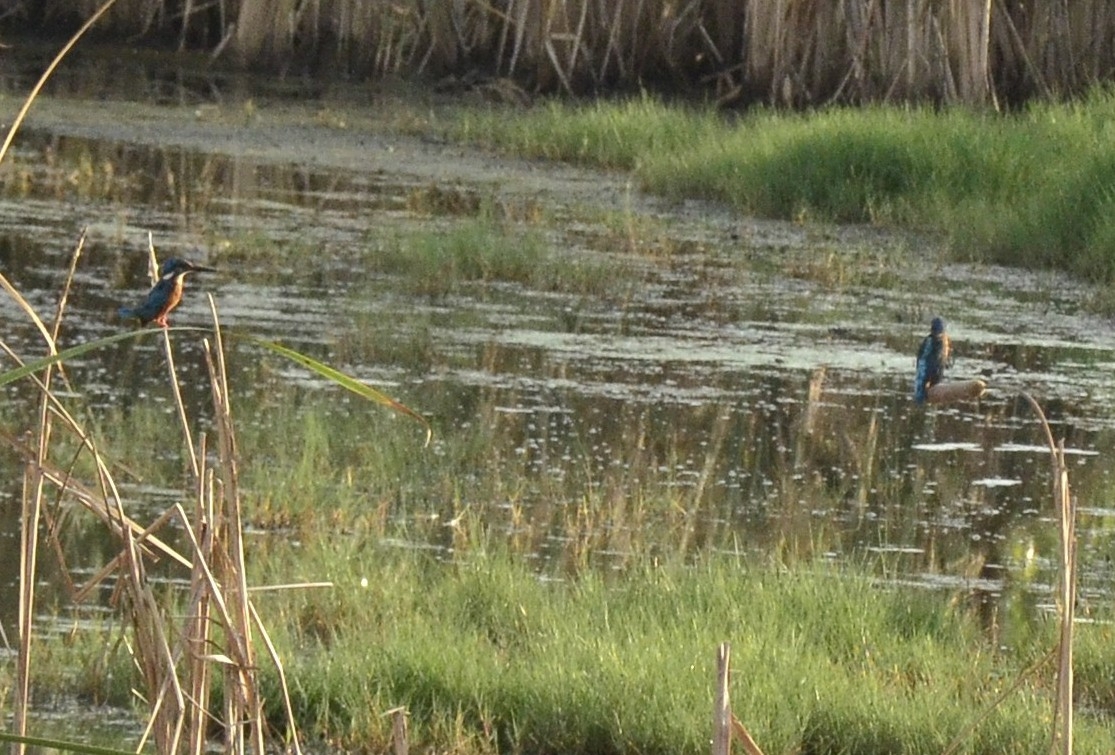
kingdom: Animalia
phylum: Chordata
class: Aves
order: Coraciiformes
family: Alcedinidae
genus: Alcedo
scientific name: Alcedo atthis
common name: Common kingfisher
